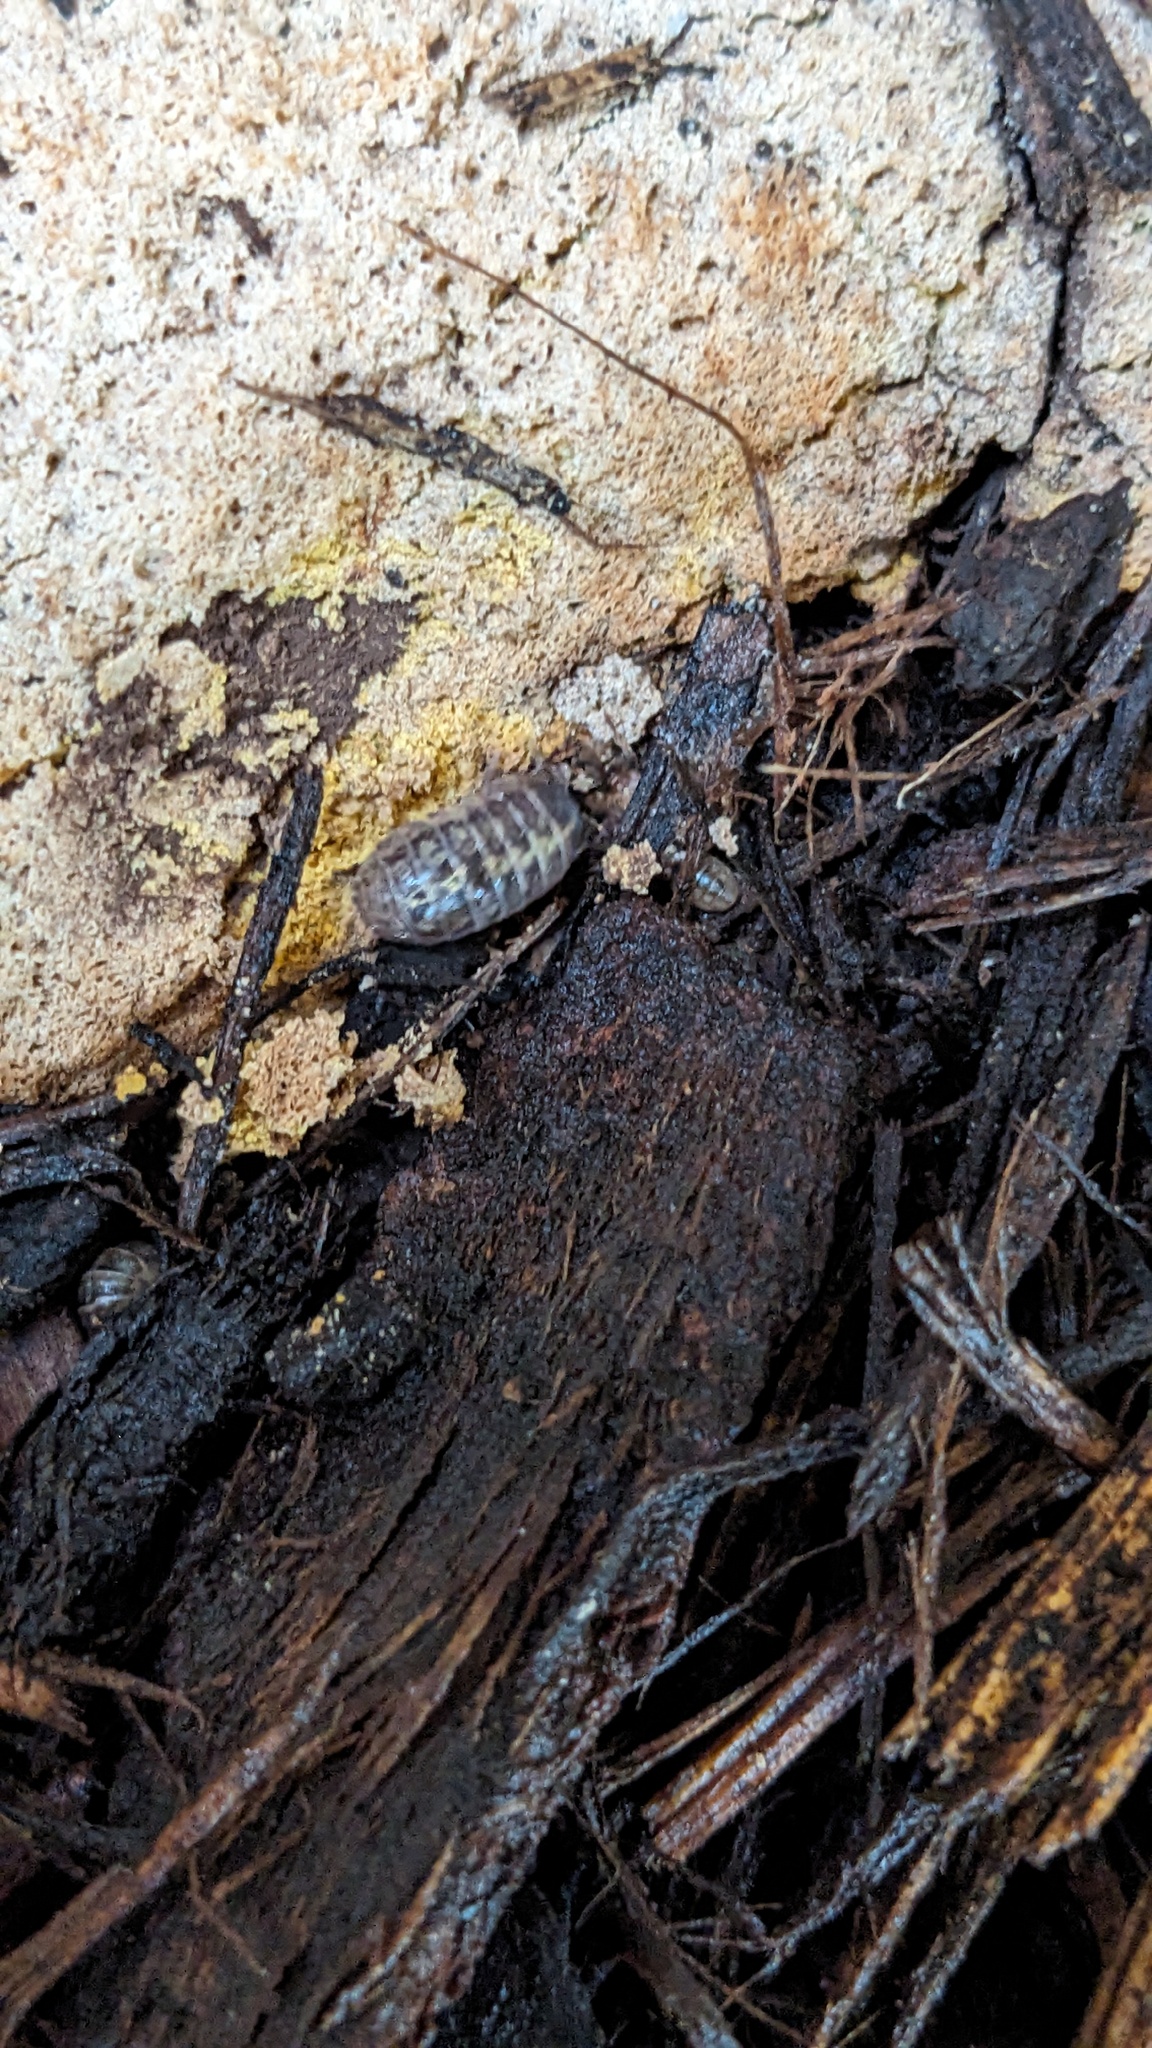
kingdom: Animalia
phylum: Arthropoda
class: Malacostraca
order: Isopoda
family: Armadillidiidae
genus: Armadillidium
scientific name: Armadillidium vulgare
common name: Common pill woodlouse
